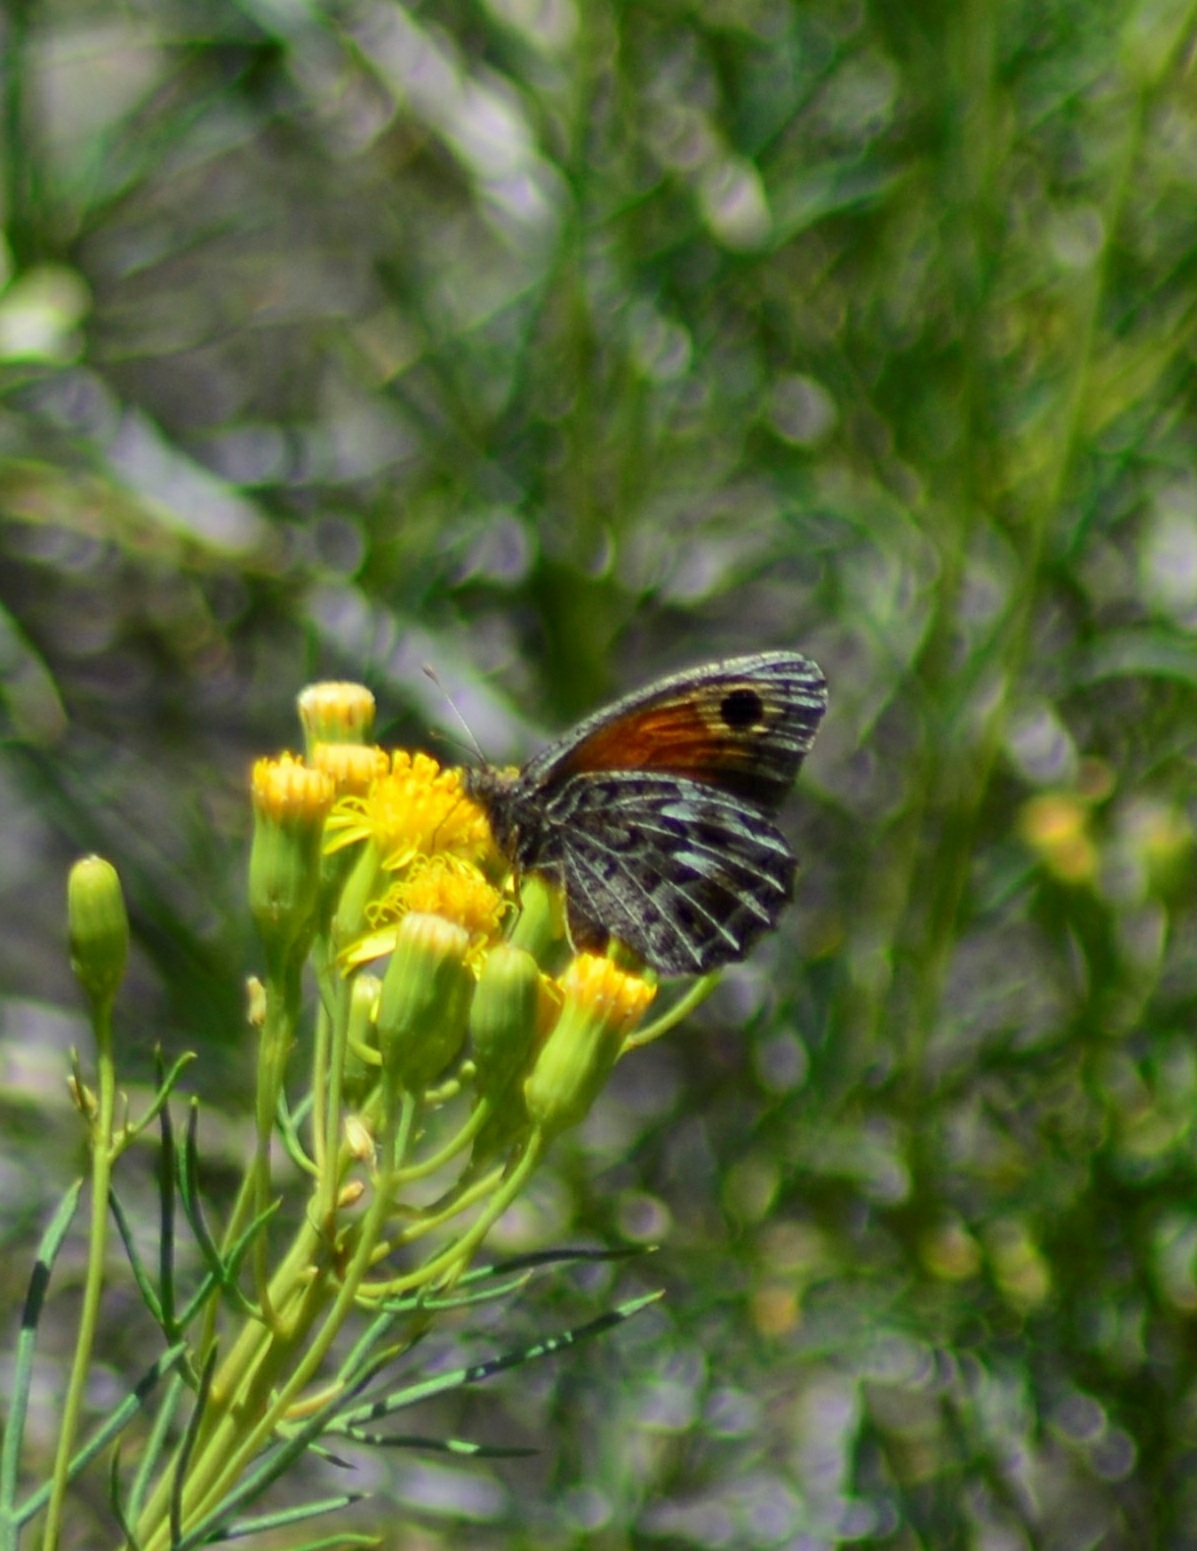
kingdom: Animalia
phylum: Arthropoda
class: Insecta
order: Lepidoptera
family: Nymphalidae
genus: Argyrophorus
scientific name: Argyrophorus
